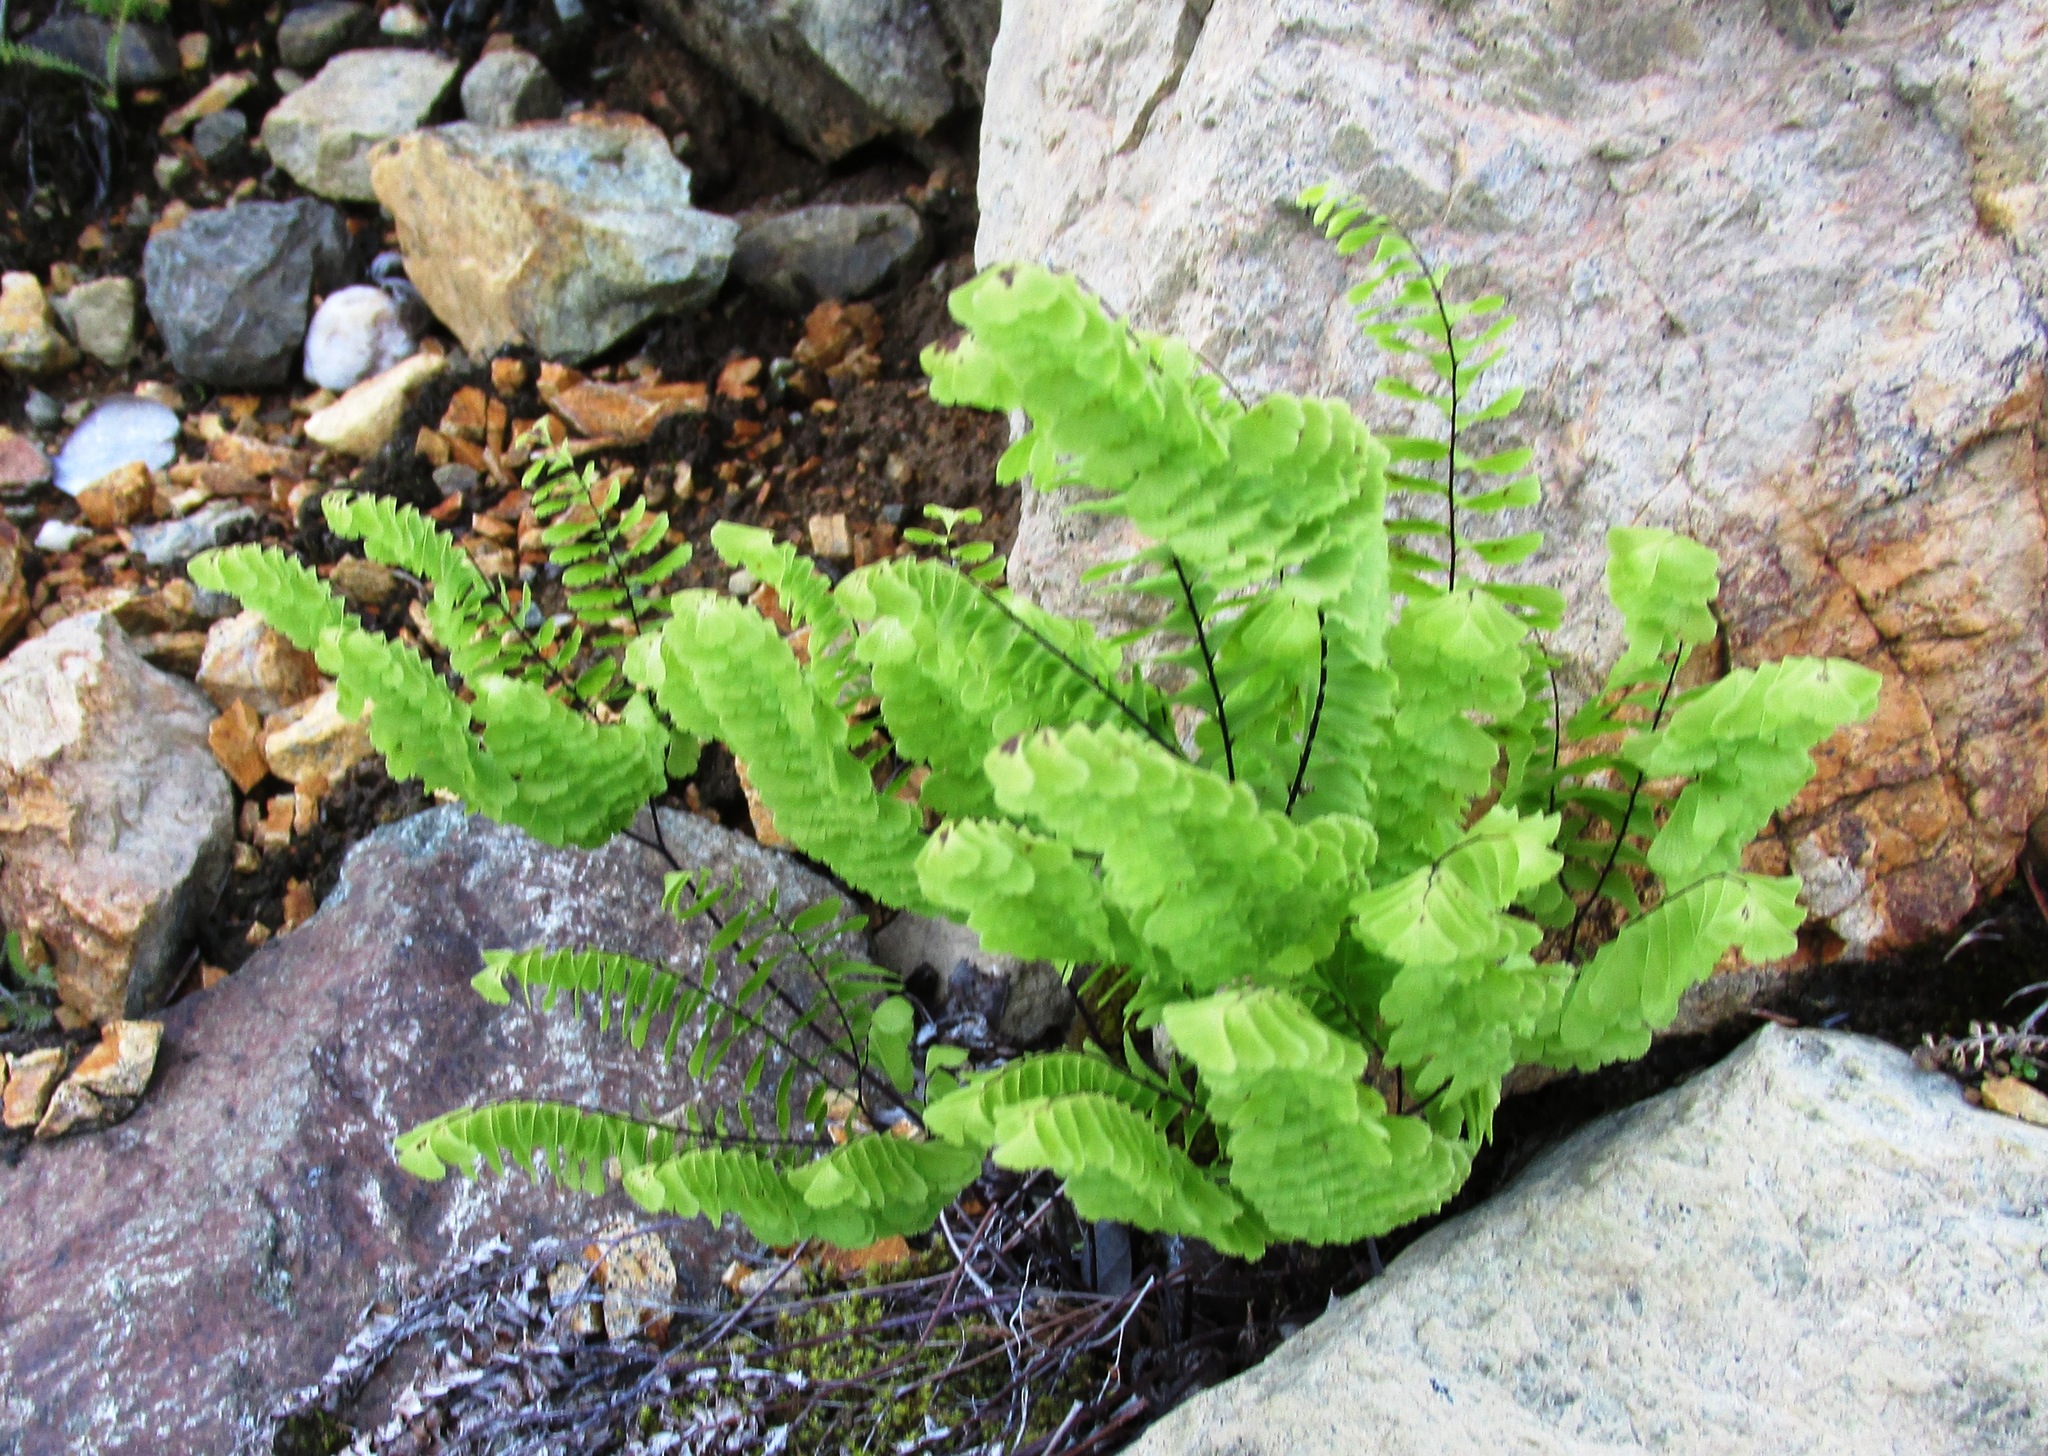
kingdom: Plantae
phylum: Tracheophyta
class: Polypodiopsida
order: Polypodiales
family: Pteridaceae
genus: Adiantum
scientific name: Adiantum aleuticum
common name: Aleutian maidenhair fern
